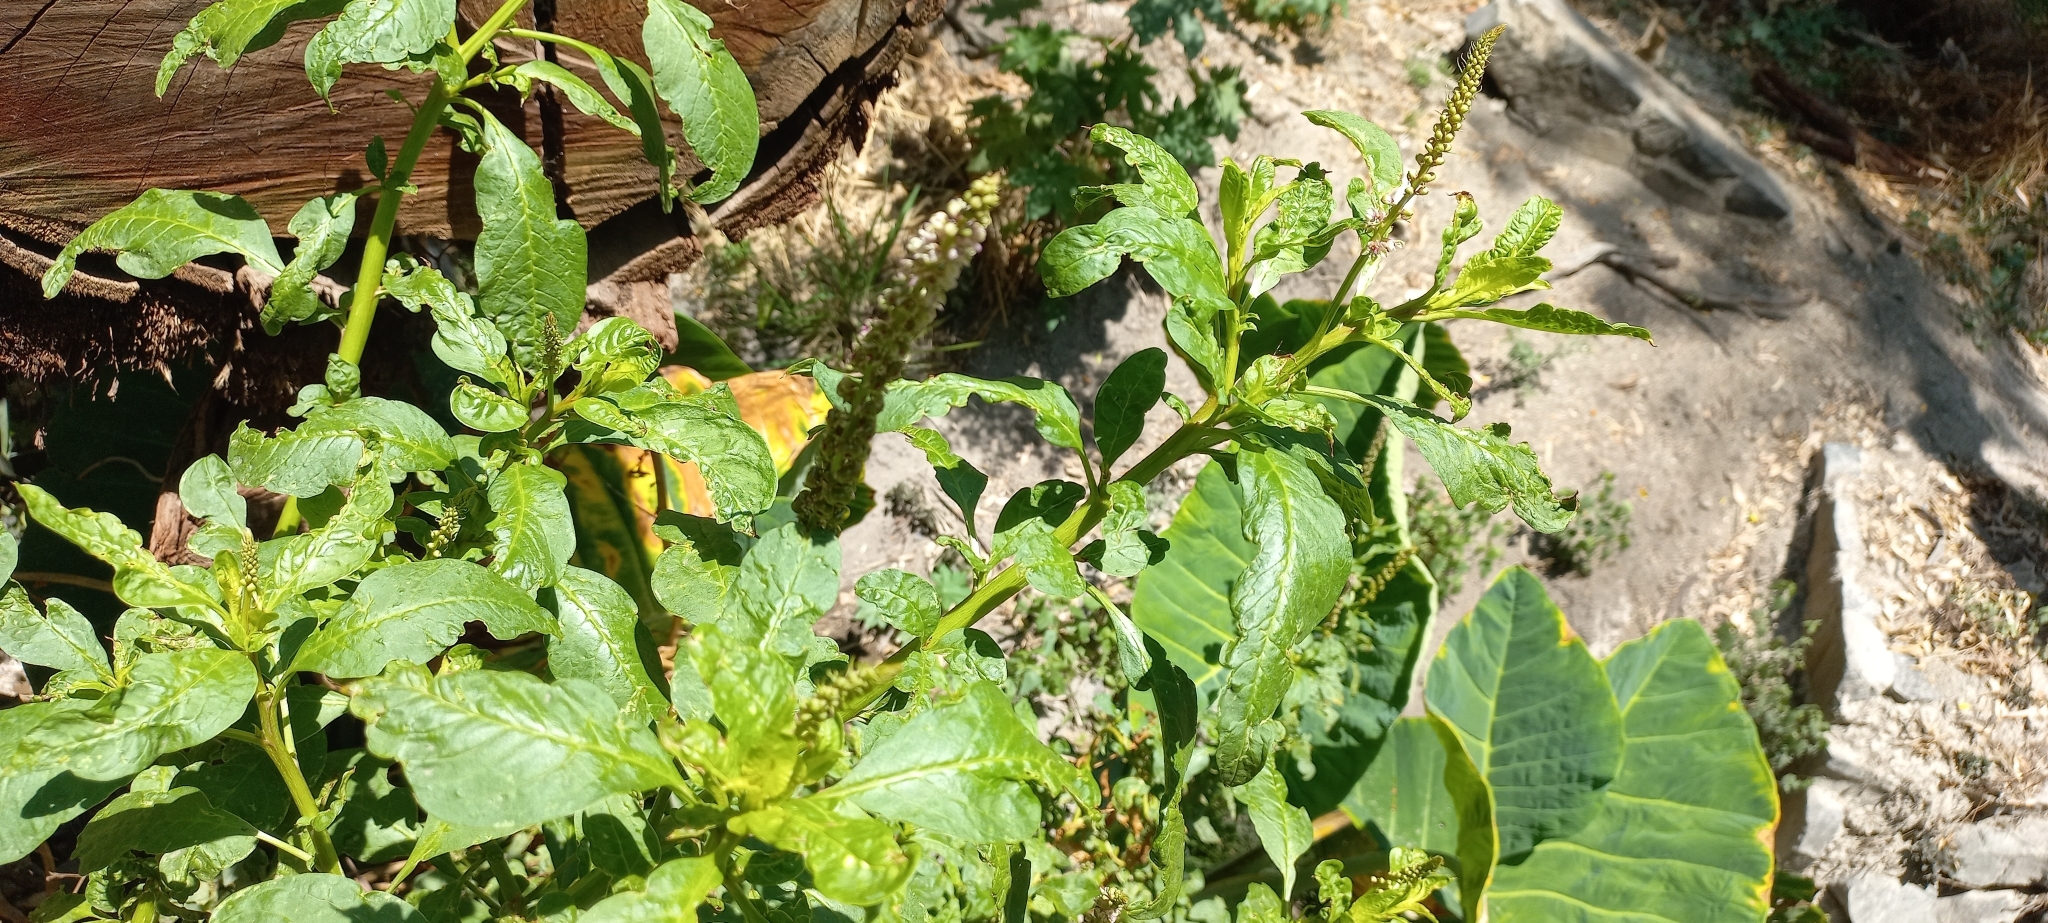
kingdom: Plantae
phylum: Tracheophyta
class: Magnoliopsida
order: Caryophyllales
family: Phytolaccaceae
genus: Phytolacca
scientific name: Phytolacca icosandra
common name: Button pokeweed
